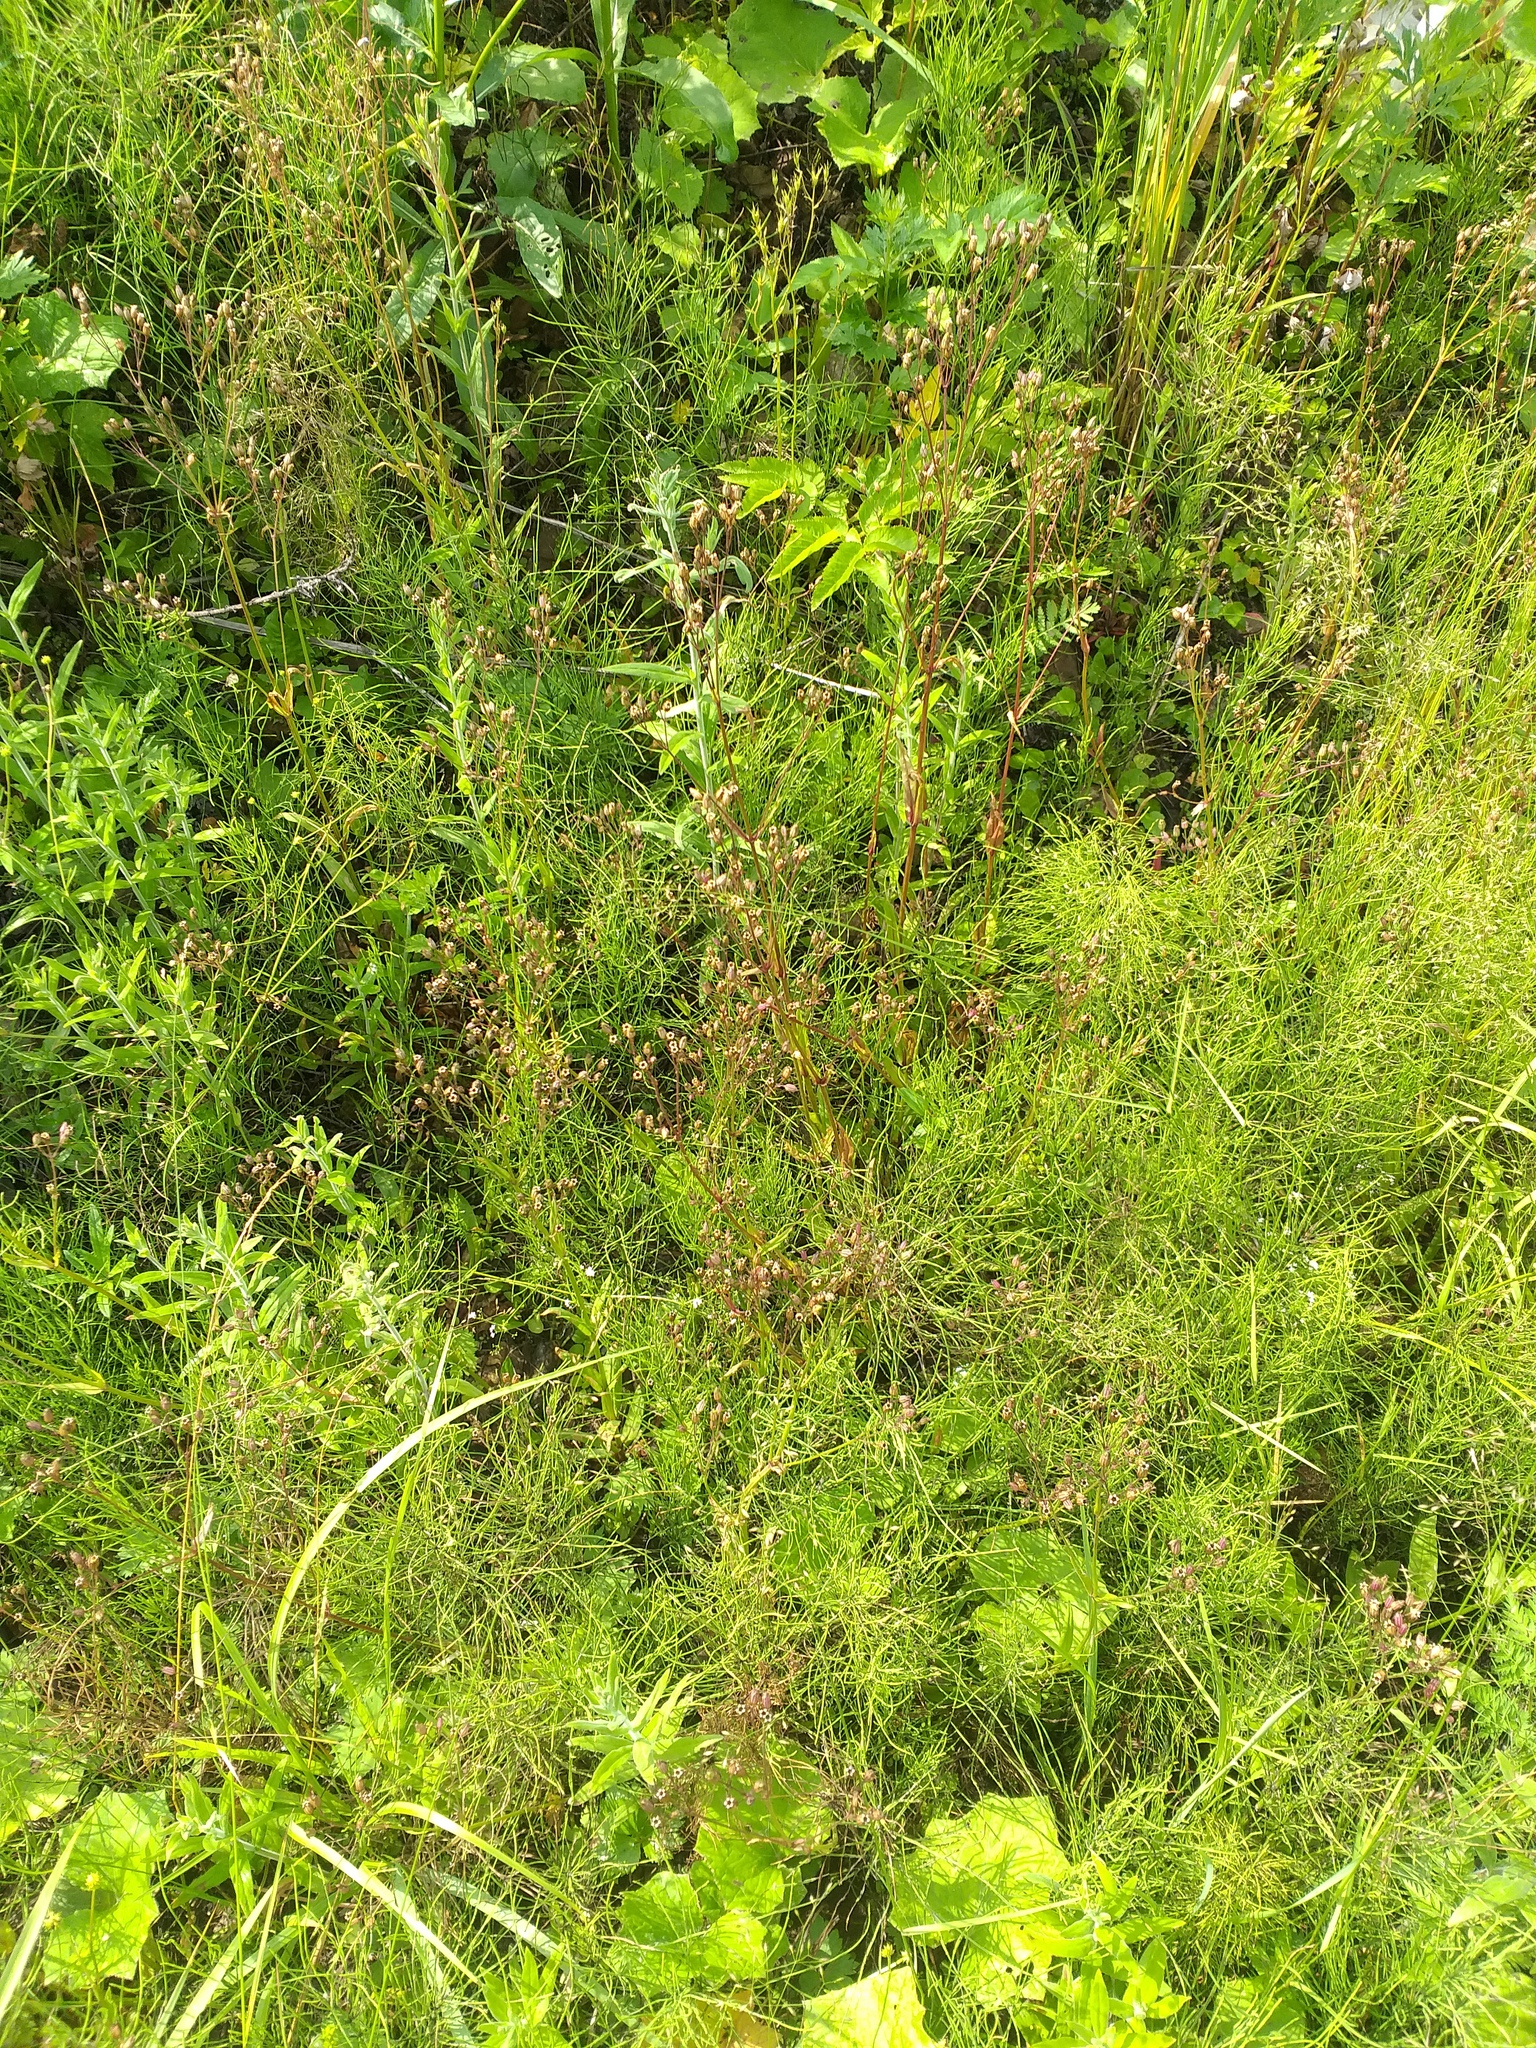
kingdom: Plantae
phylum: Tracheophyta
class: Magnoliopsida
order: Caryophyllales
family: Caryophyllaceae
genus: Silene
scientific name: Silene flos-cuculi
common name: Ragged-robin
